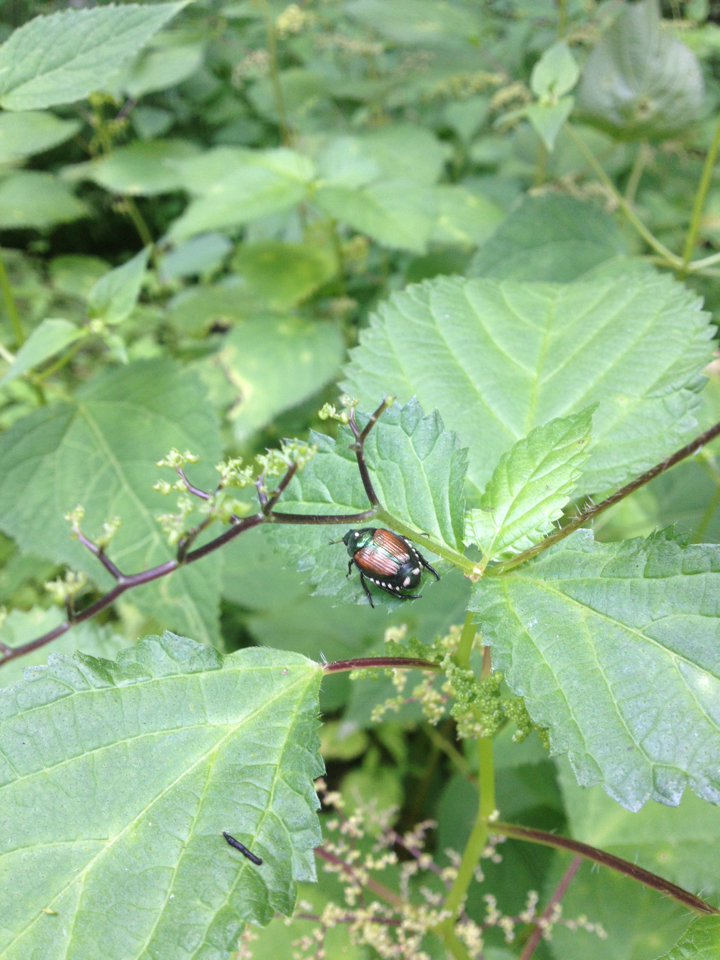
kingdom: Animalia
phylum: Arthropoda
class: Insecta
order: Coleoptera
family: Scarabaeidae
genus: Popillia
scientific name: Popillia japonica
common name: Japanese beetle
